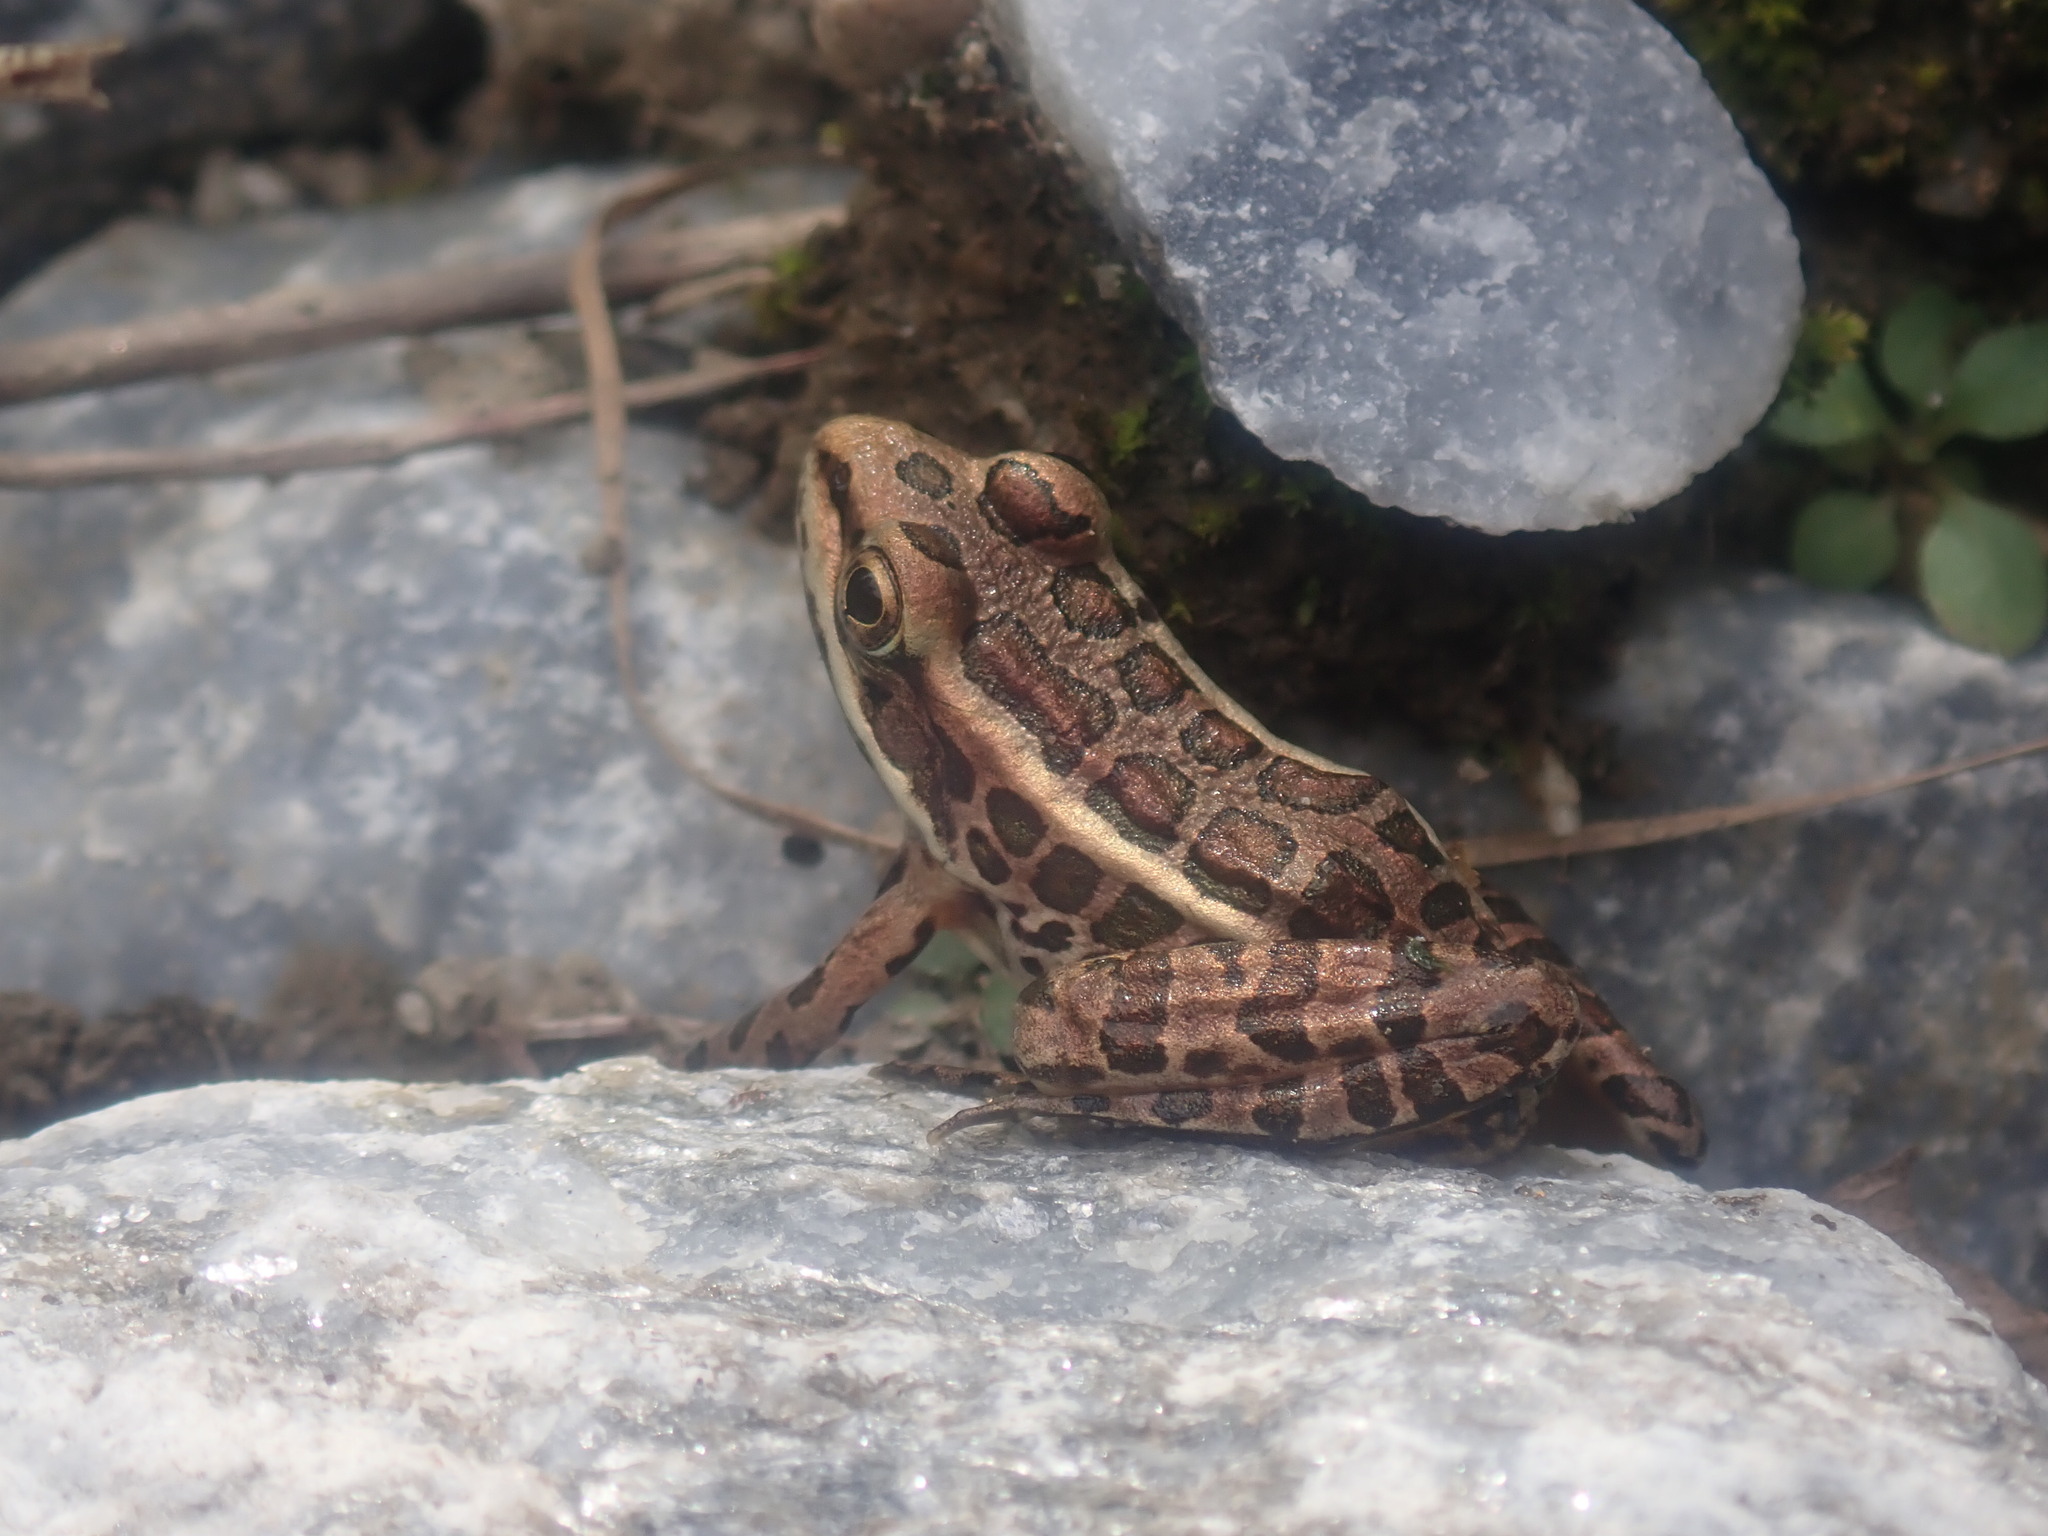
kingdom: Animalia
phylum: Chordata
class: Amphibia
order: Anura
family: Ranidae
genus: Lithobates
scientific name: Lithobates palustris
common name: Pickerel frog
